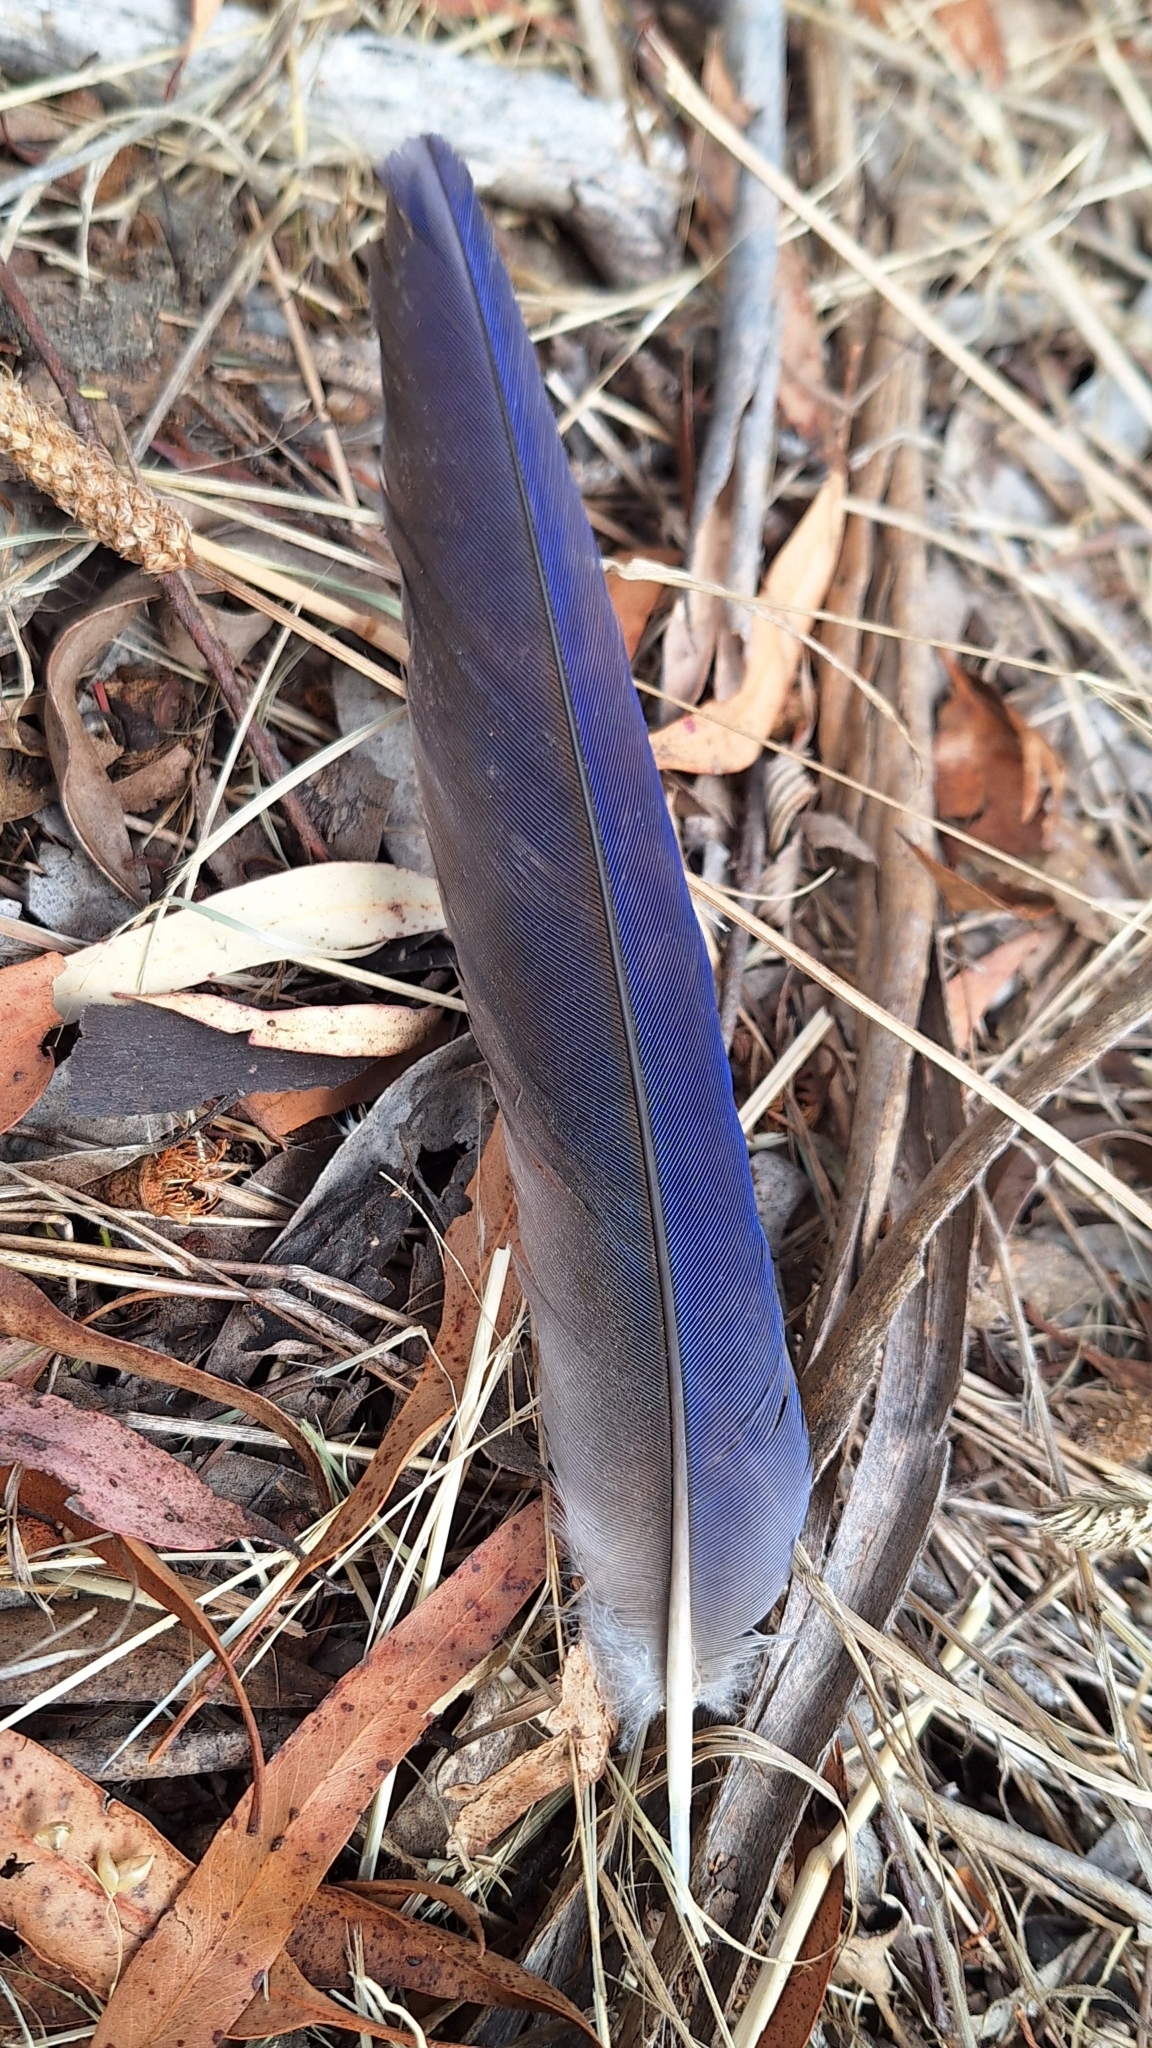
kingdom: Animalia
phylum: Chordata
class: Aves
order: Psittaciformes
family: Psittacidae
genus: Platycercus
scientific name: Platycercus elegans
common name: Crimson rosella
